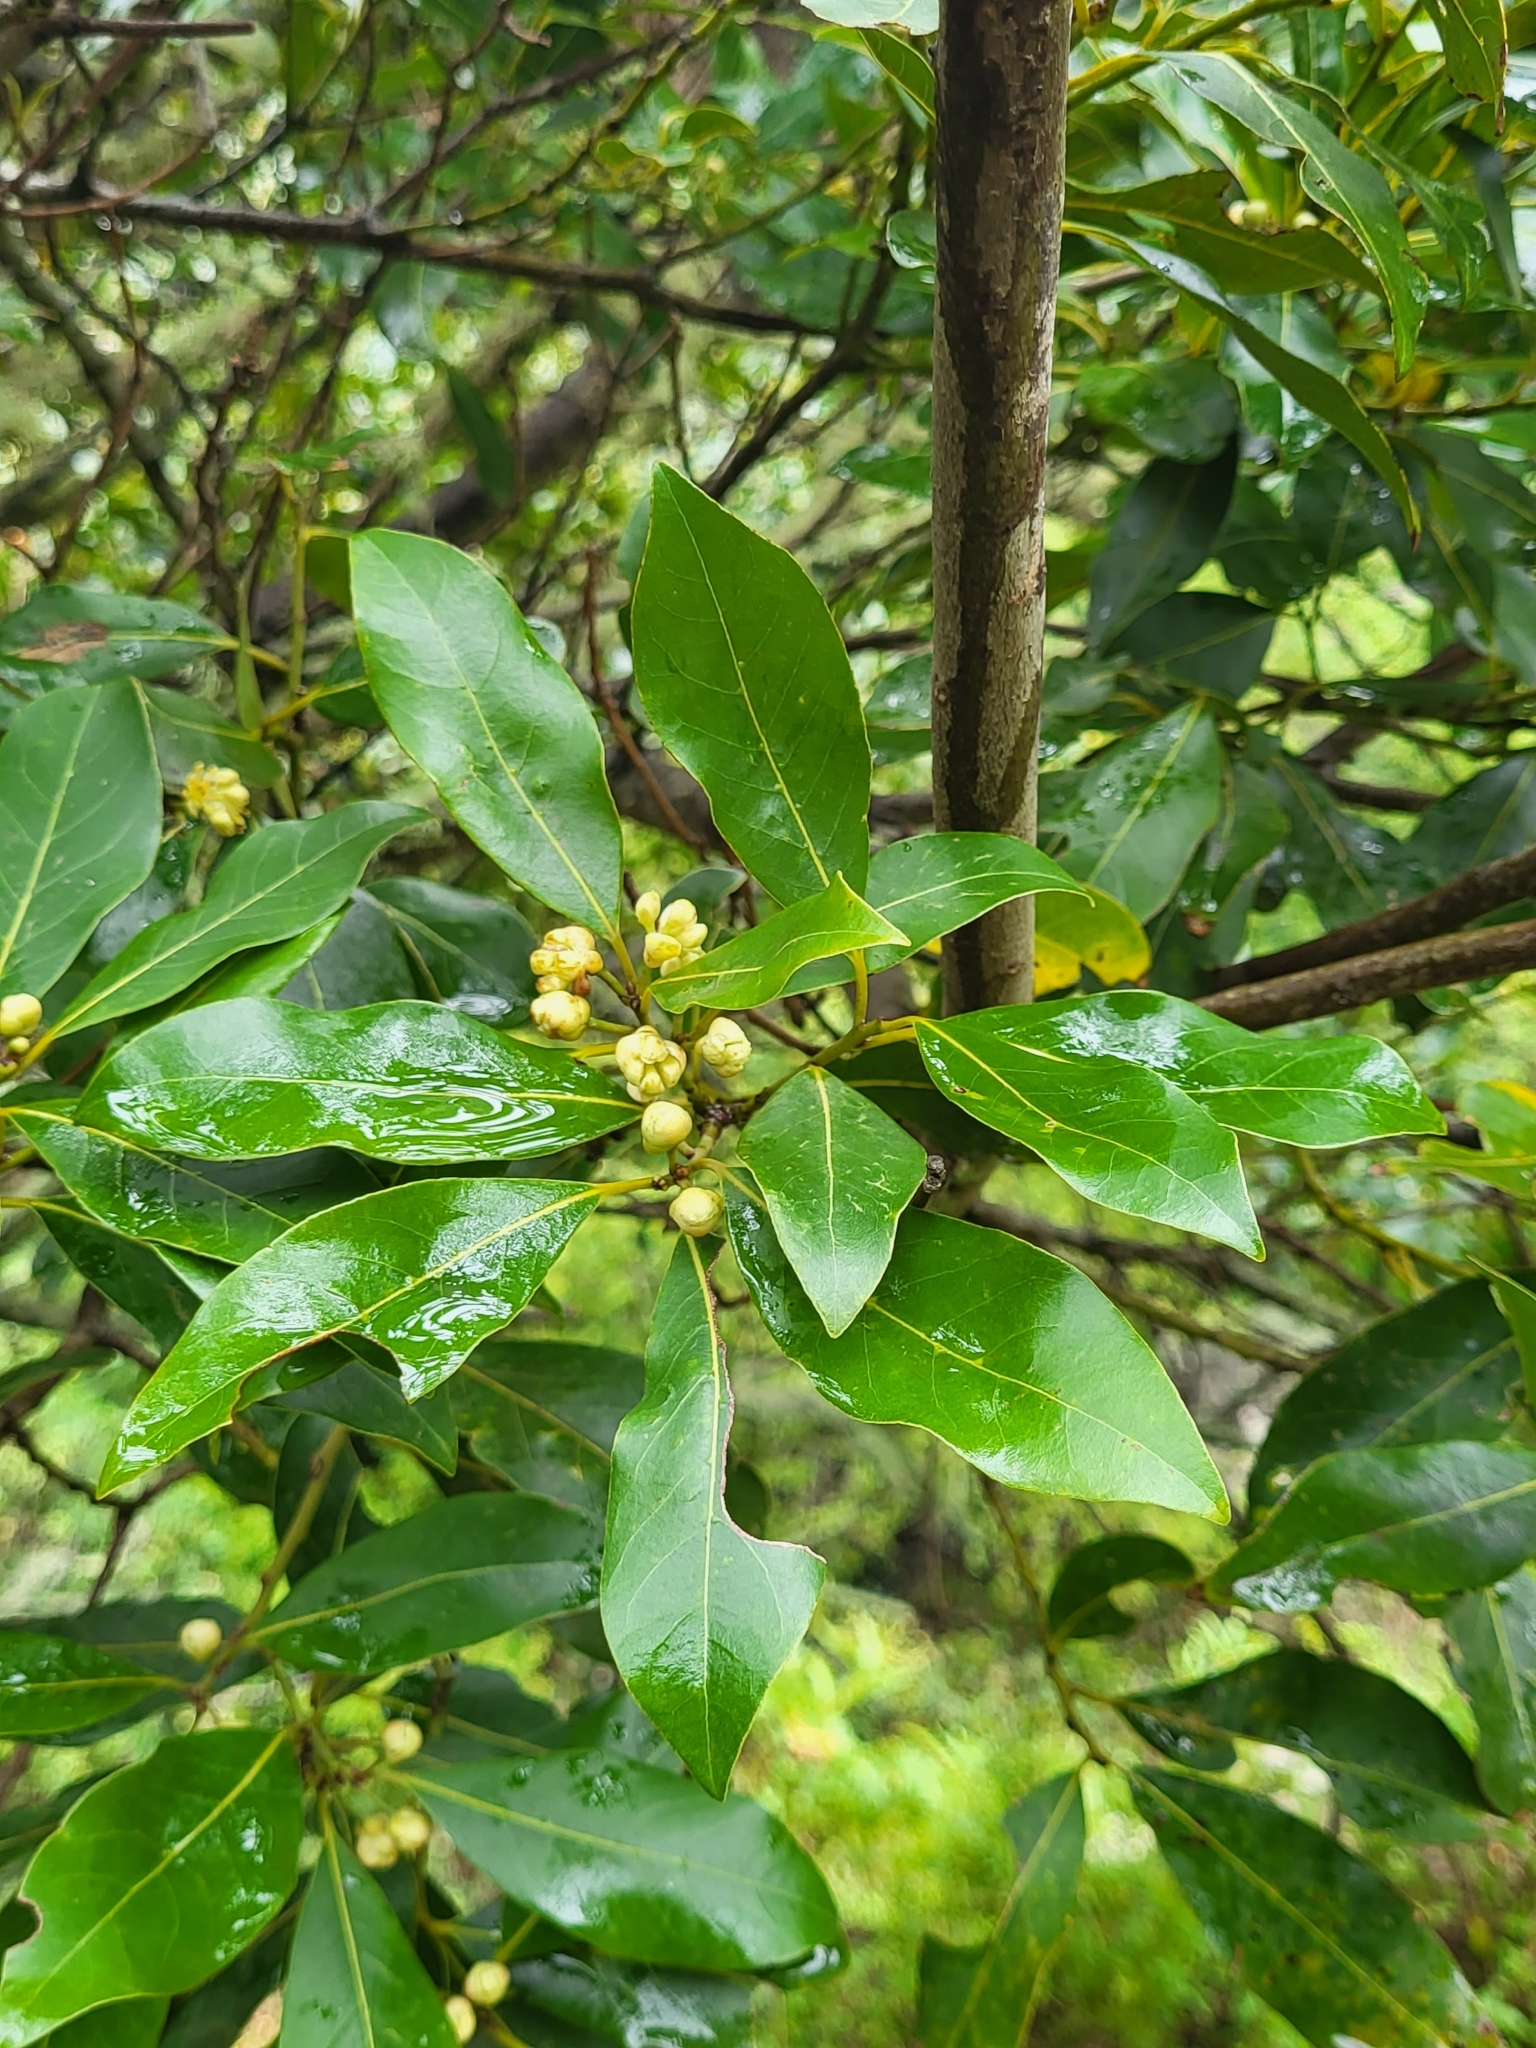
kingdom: Plantae
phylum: Tracheophyta
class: Magnoliopsida
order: Laurales
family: Lauraceae
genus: Laurus
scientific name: Laurus novocanariensis
